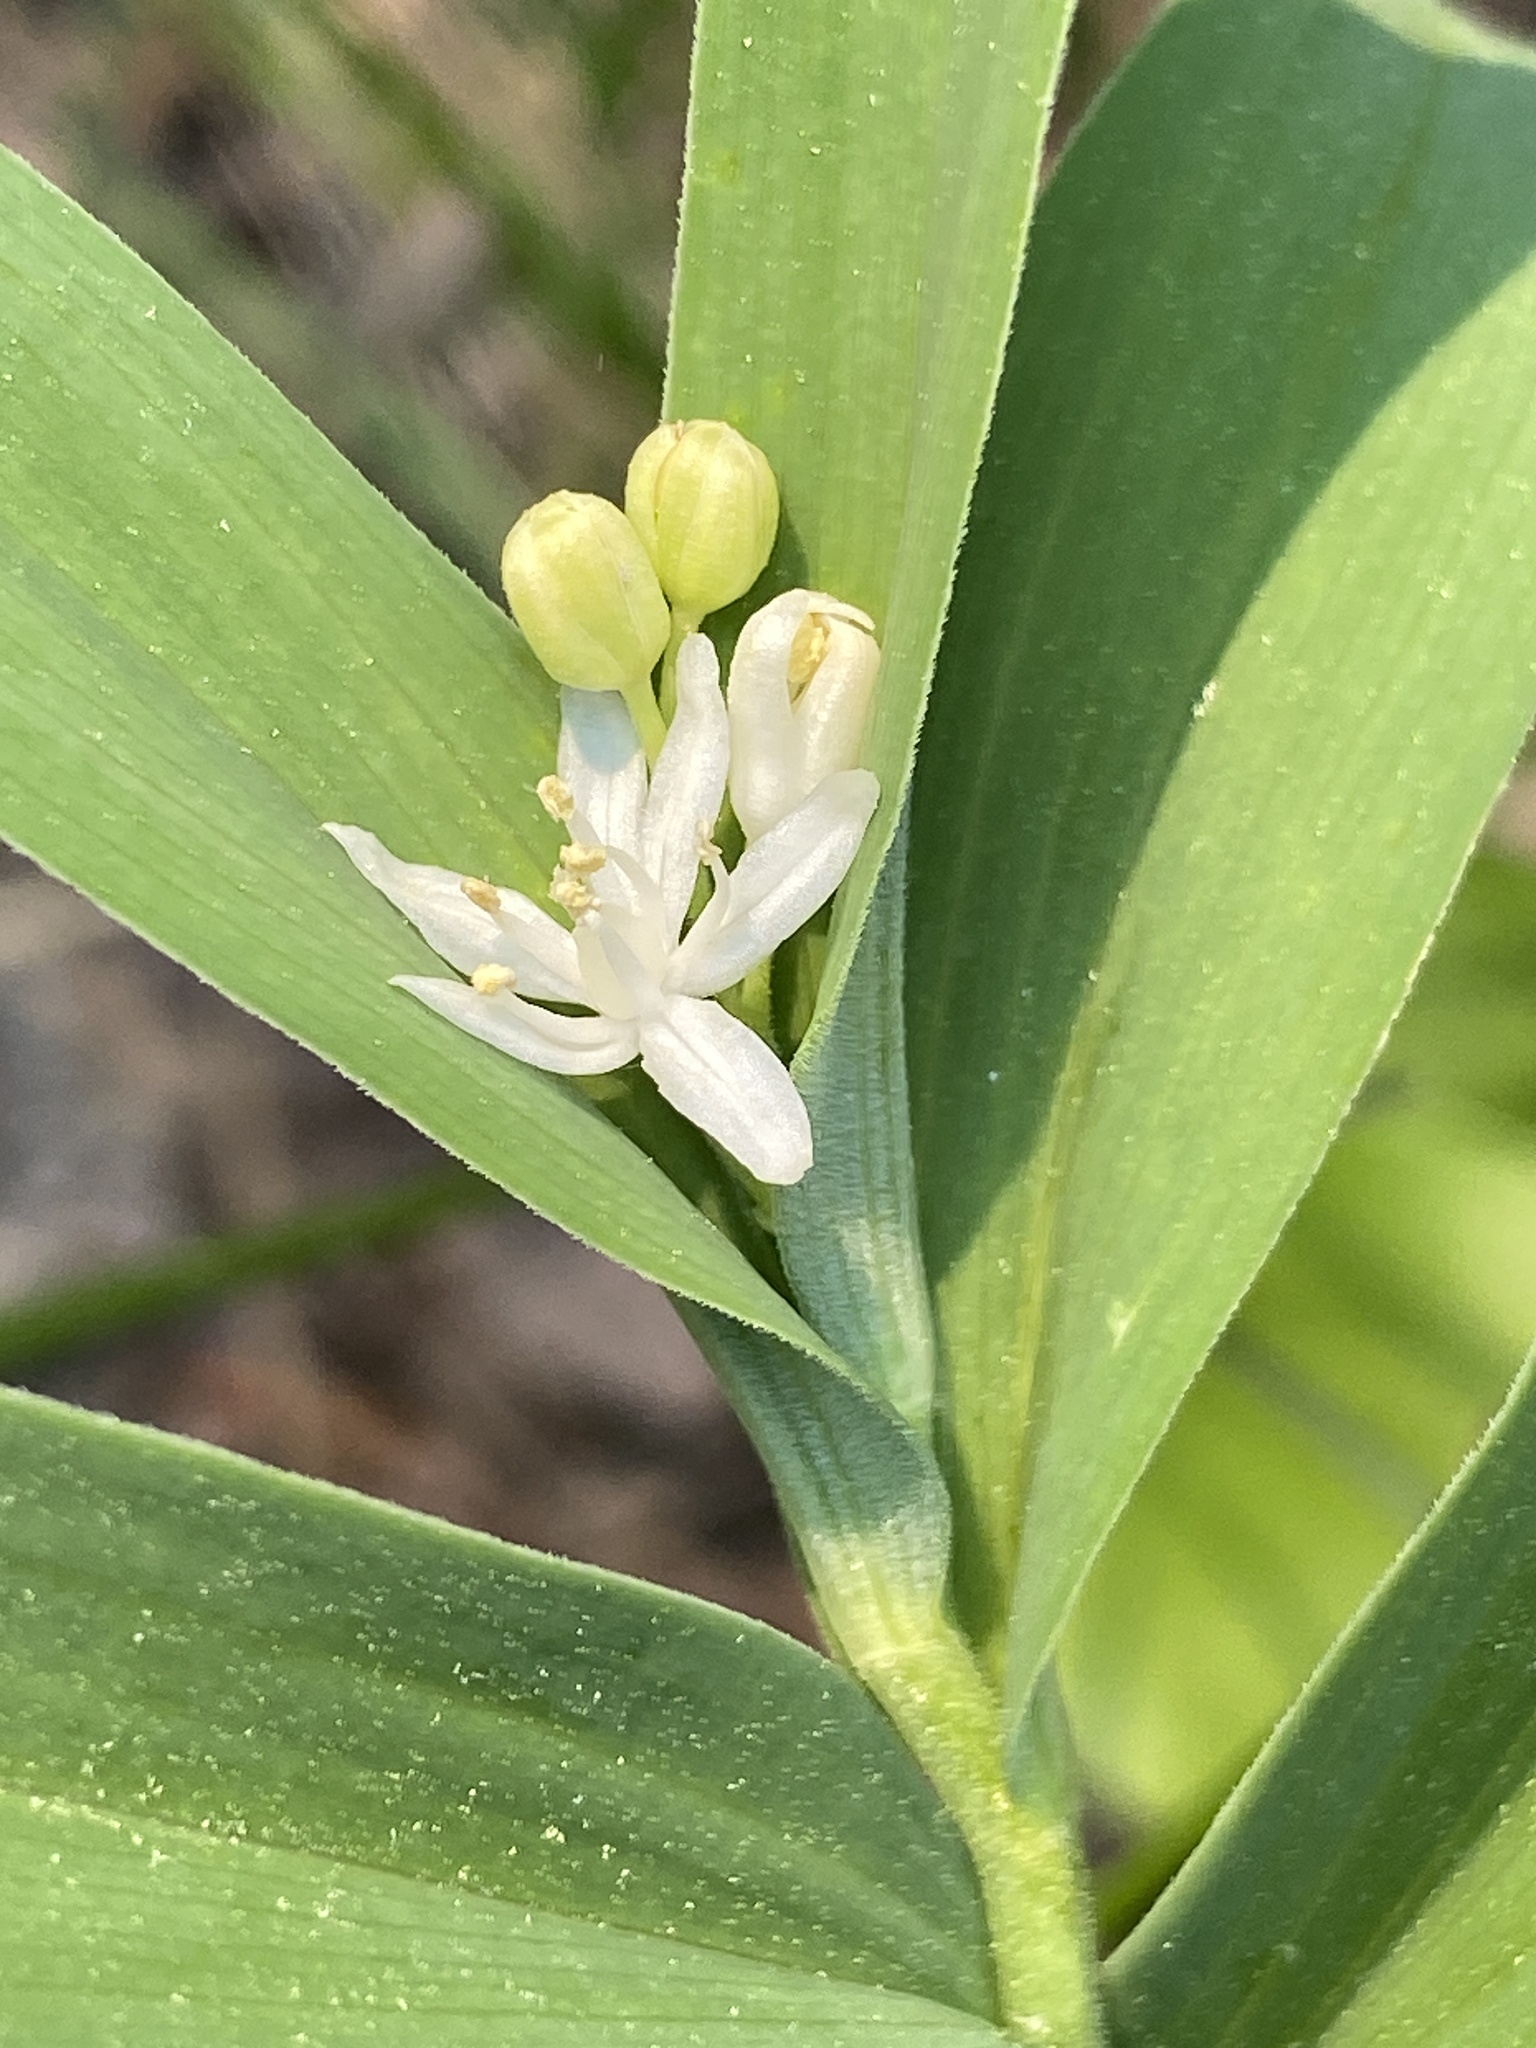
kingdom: Plantae
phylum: Tracheophyta
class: Liliopsida
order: Asparagales
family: Asparagaceae
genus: Maianthemum
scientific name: Maianthemum stellatum
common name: Little false solomon's seal
